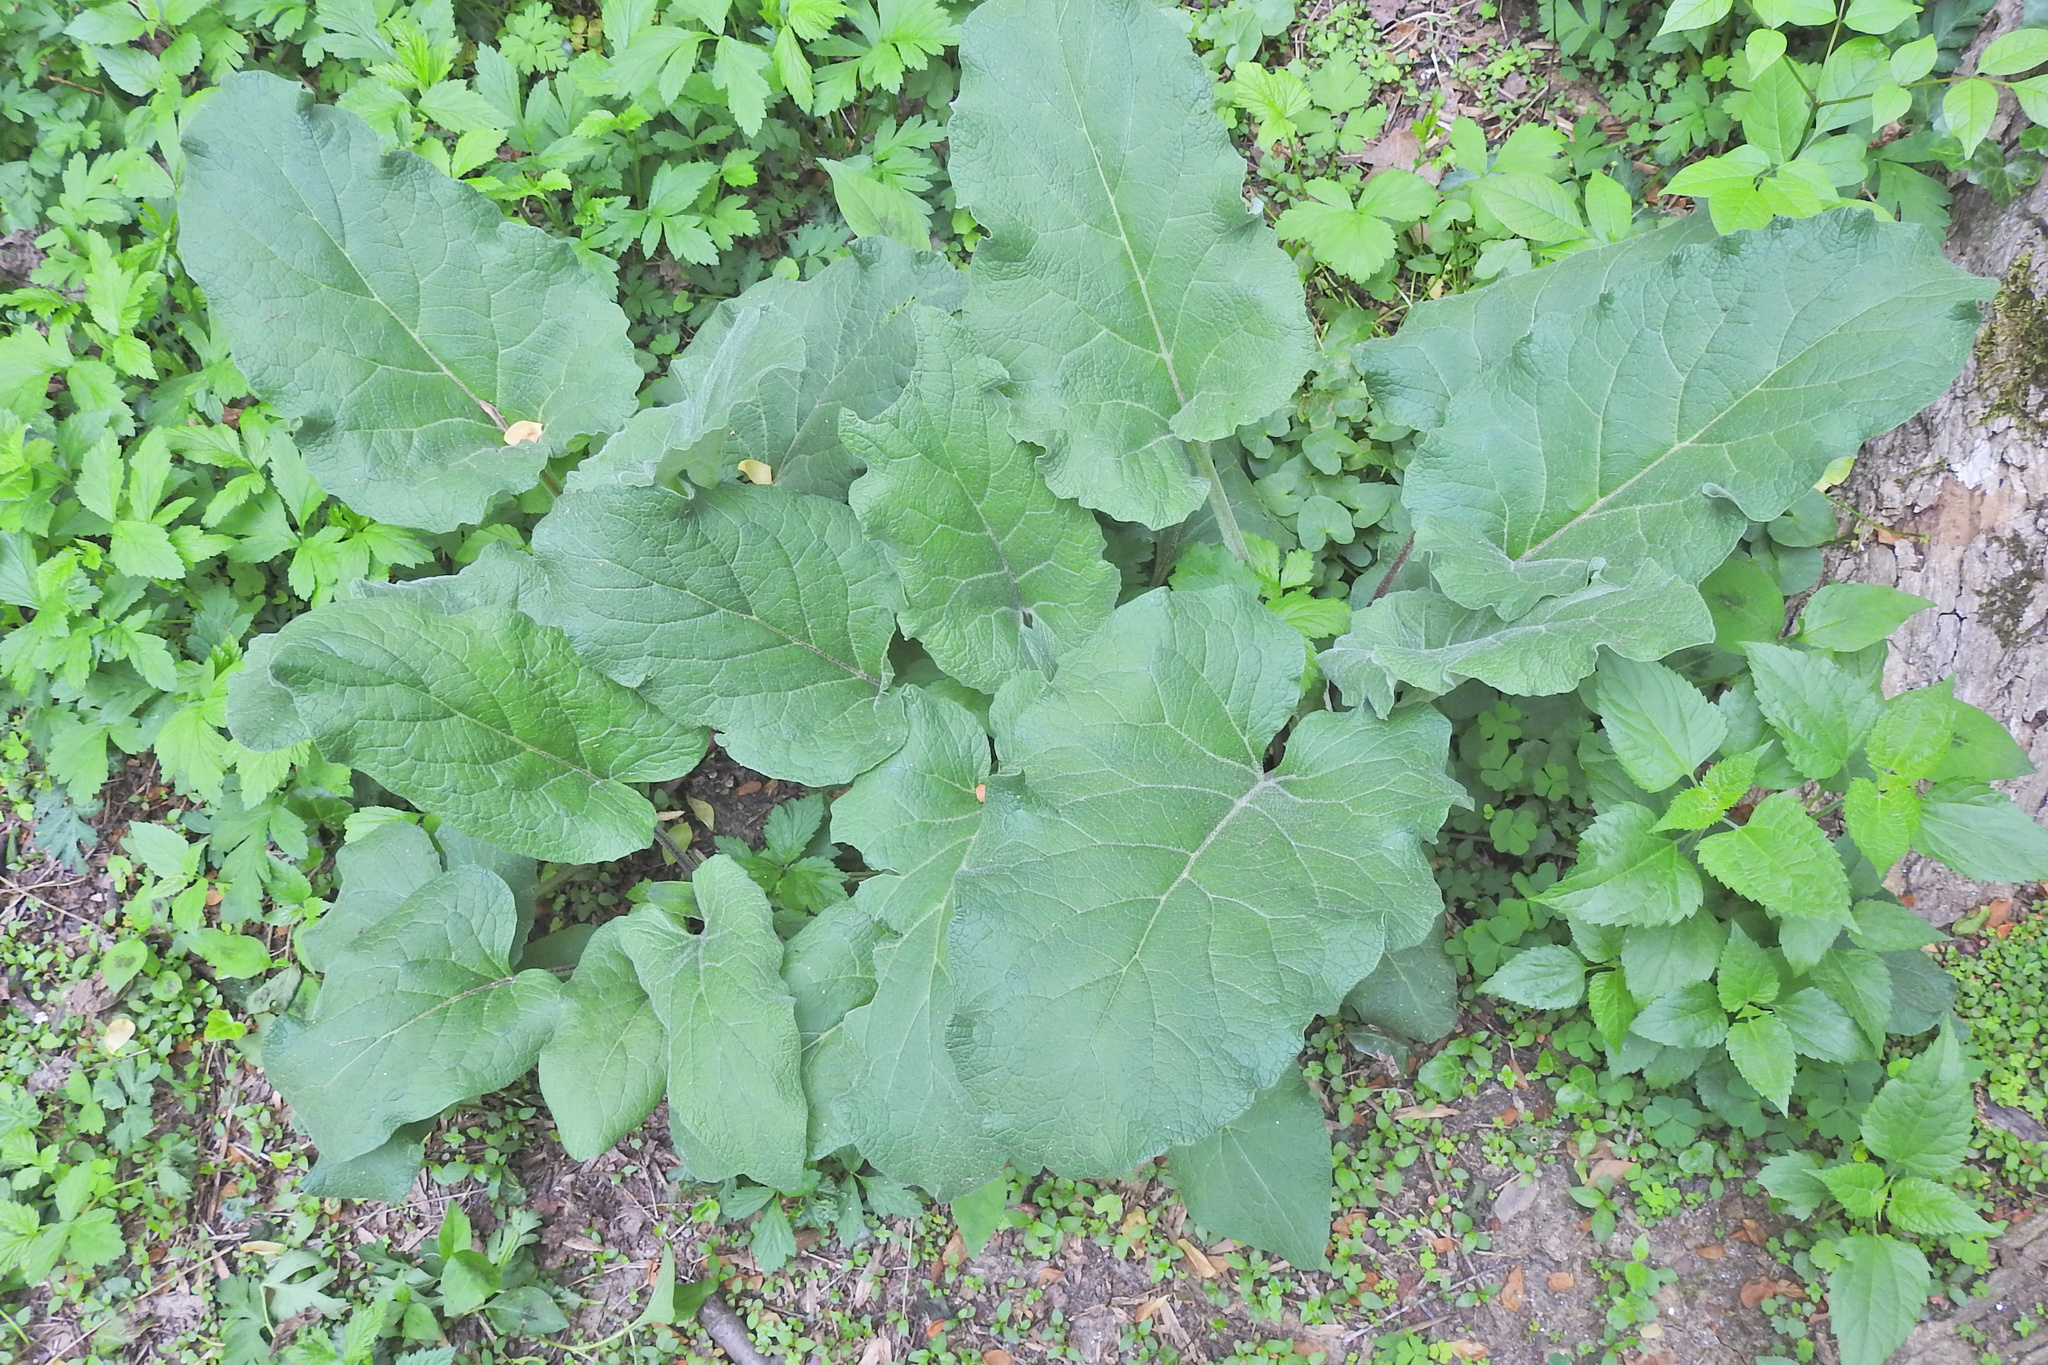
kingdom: Plantae
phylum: Tracheophyta
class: Magnoliopsida
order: Asterales
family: Asteraceae
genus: Arctium
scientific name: Arctium
